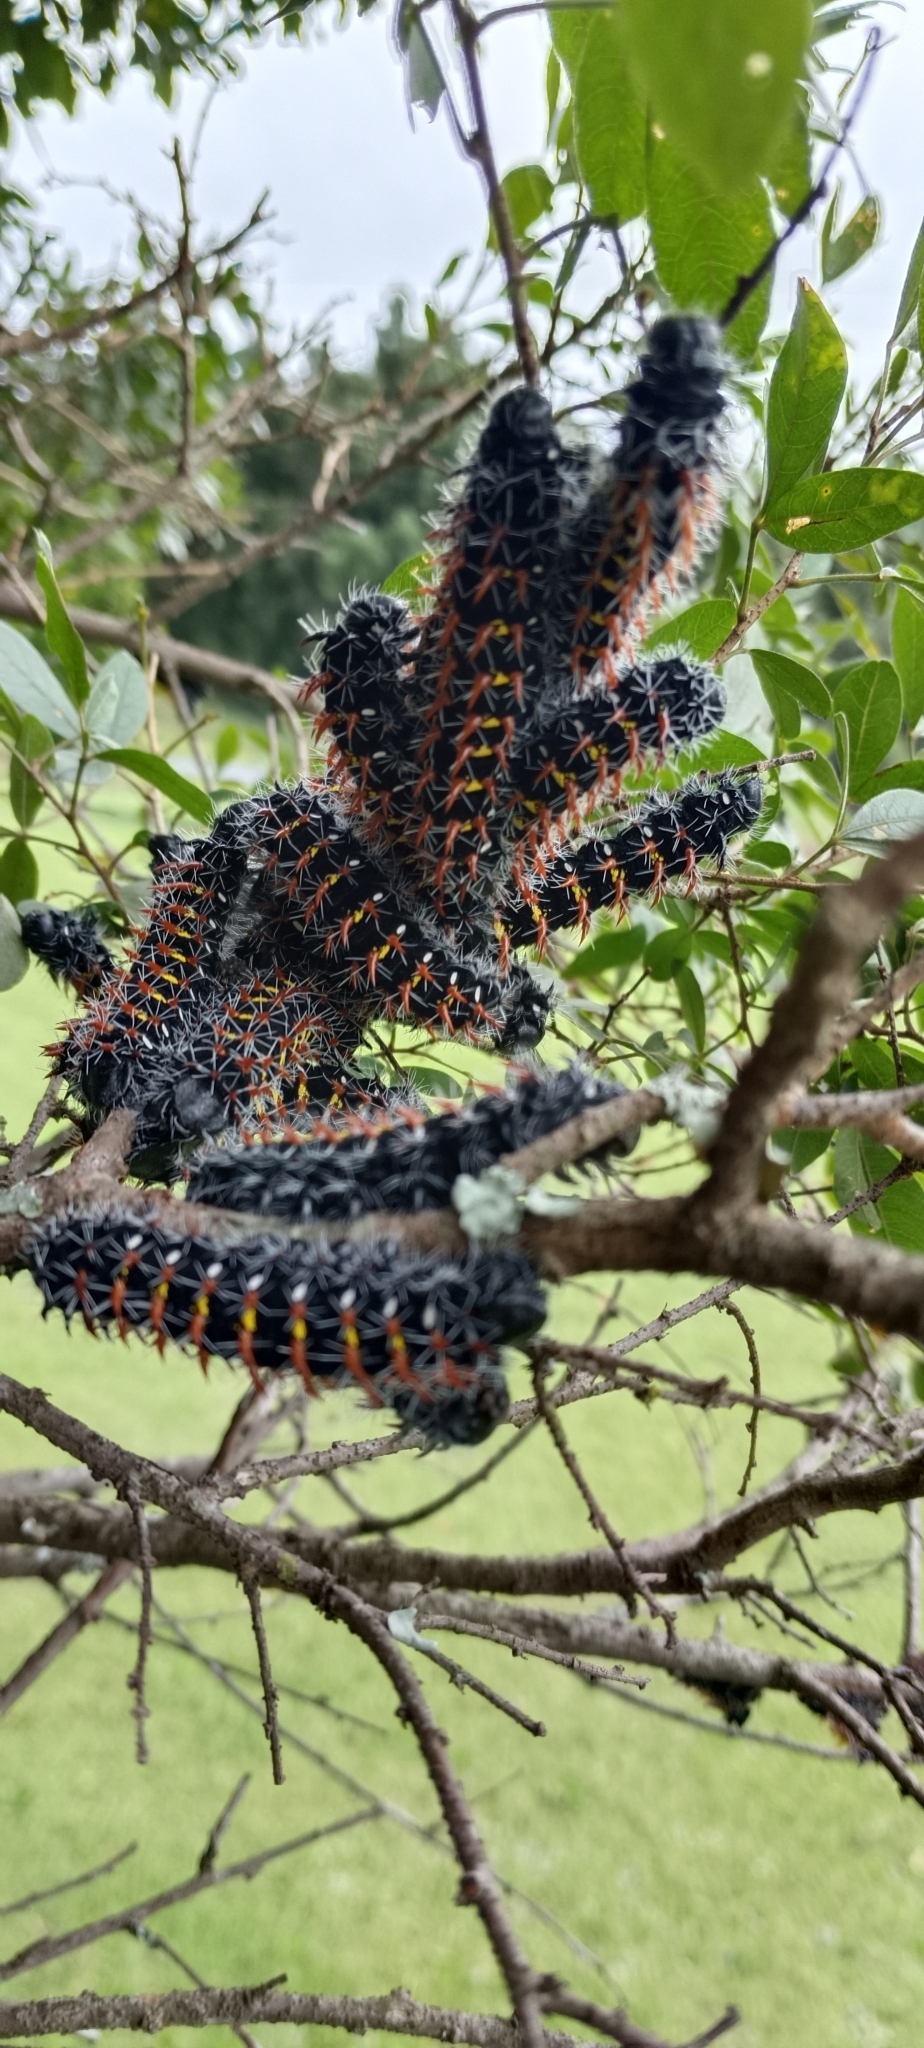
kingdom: Animalia
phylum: Arthropoda
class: Insecta
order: Lepidoptera
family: Saturniidae
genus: Nudaurelia
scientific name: Nudaurelia wahlbergi
